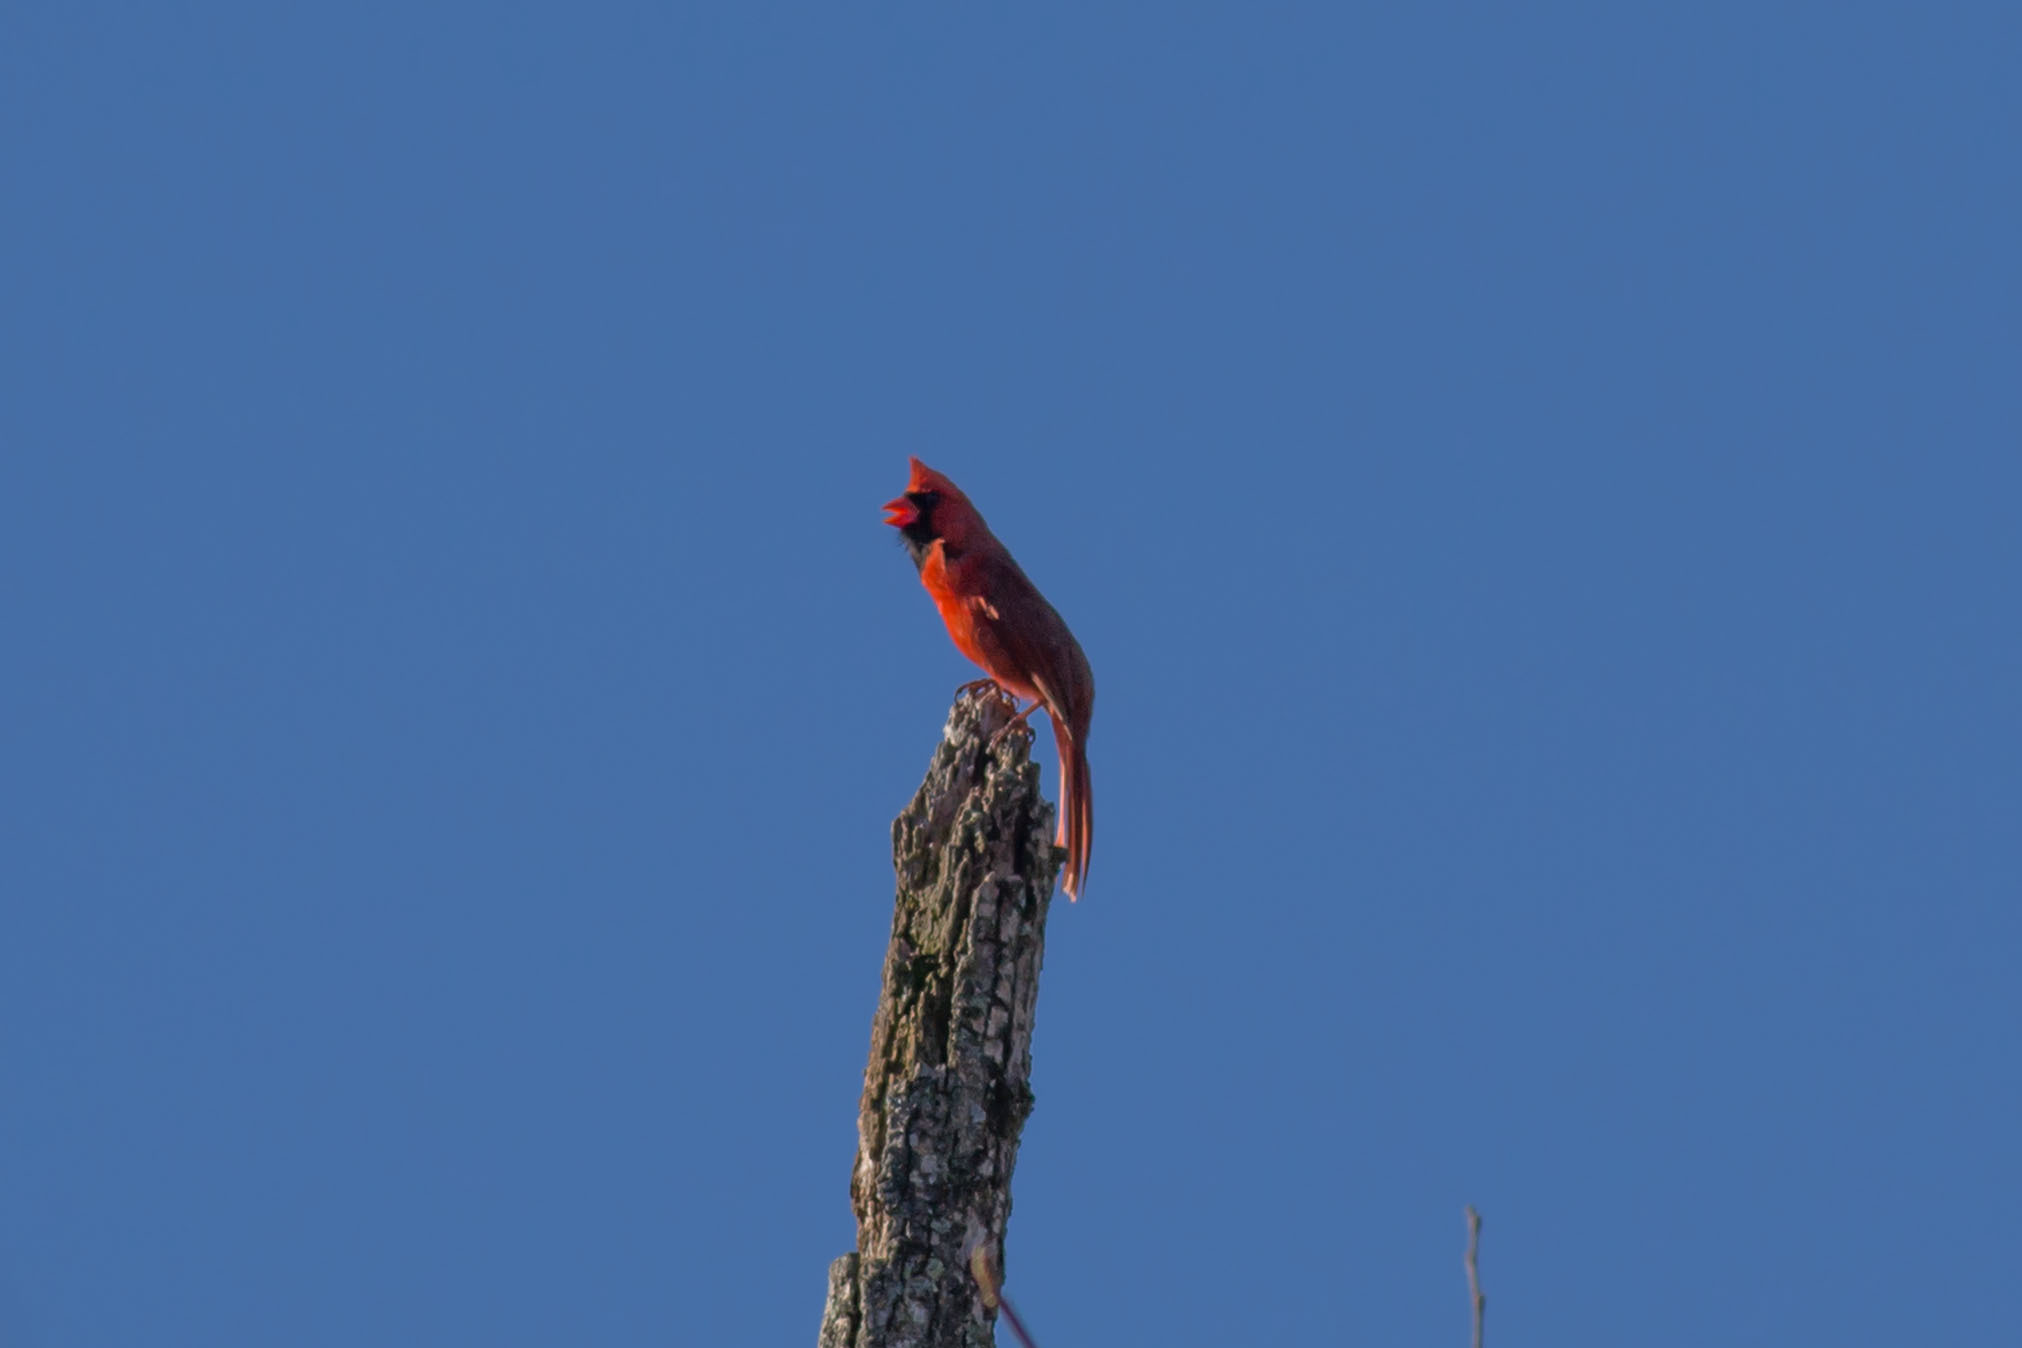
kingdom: Animalia
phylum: Chordata
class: Aves
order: Passeriformes
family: Cardinalidae
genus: Cardinalis
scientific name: Cardinalis cardinalis
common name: Northern cardinal
